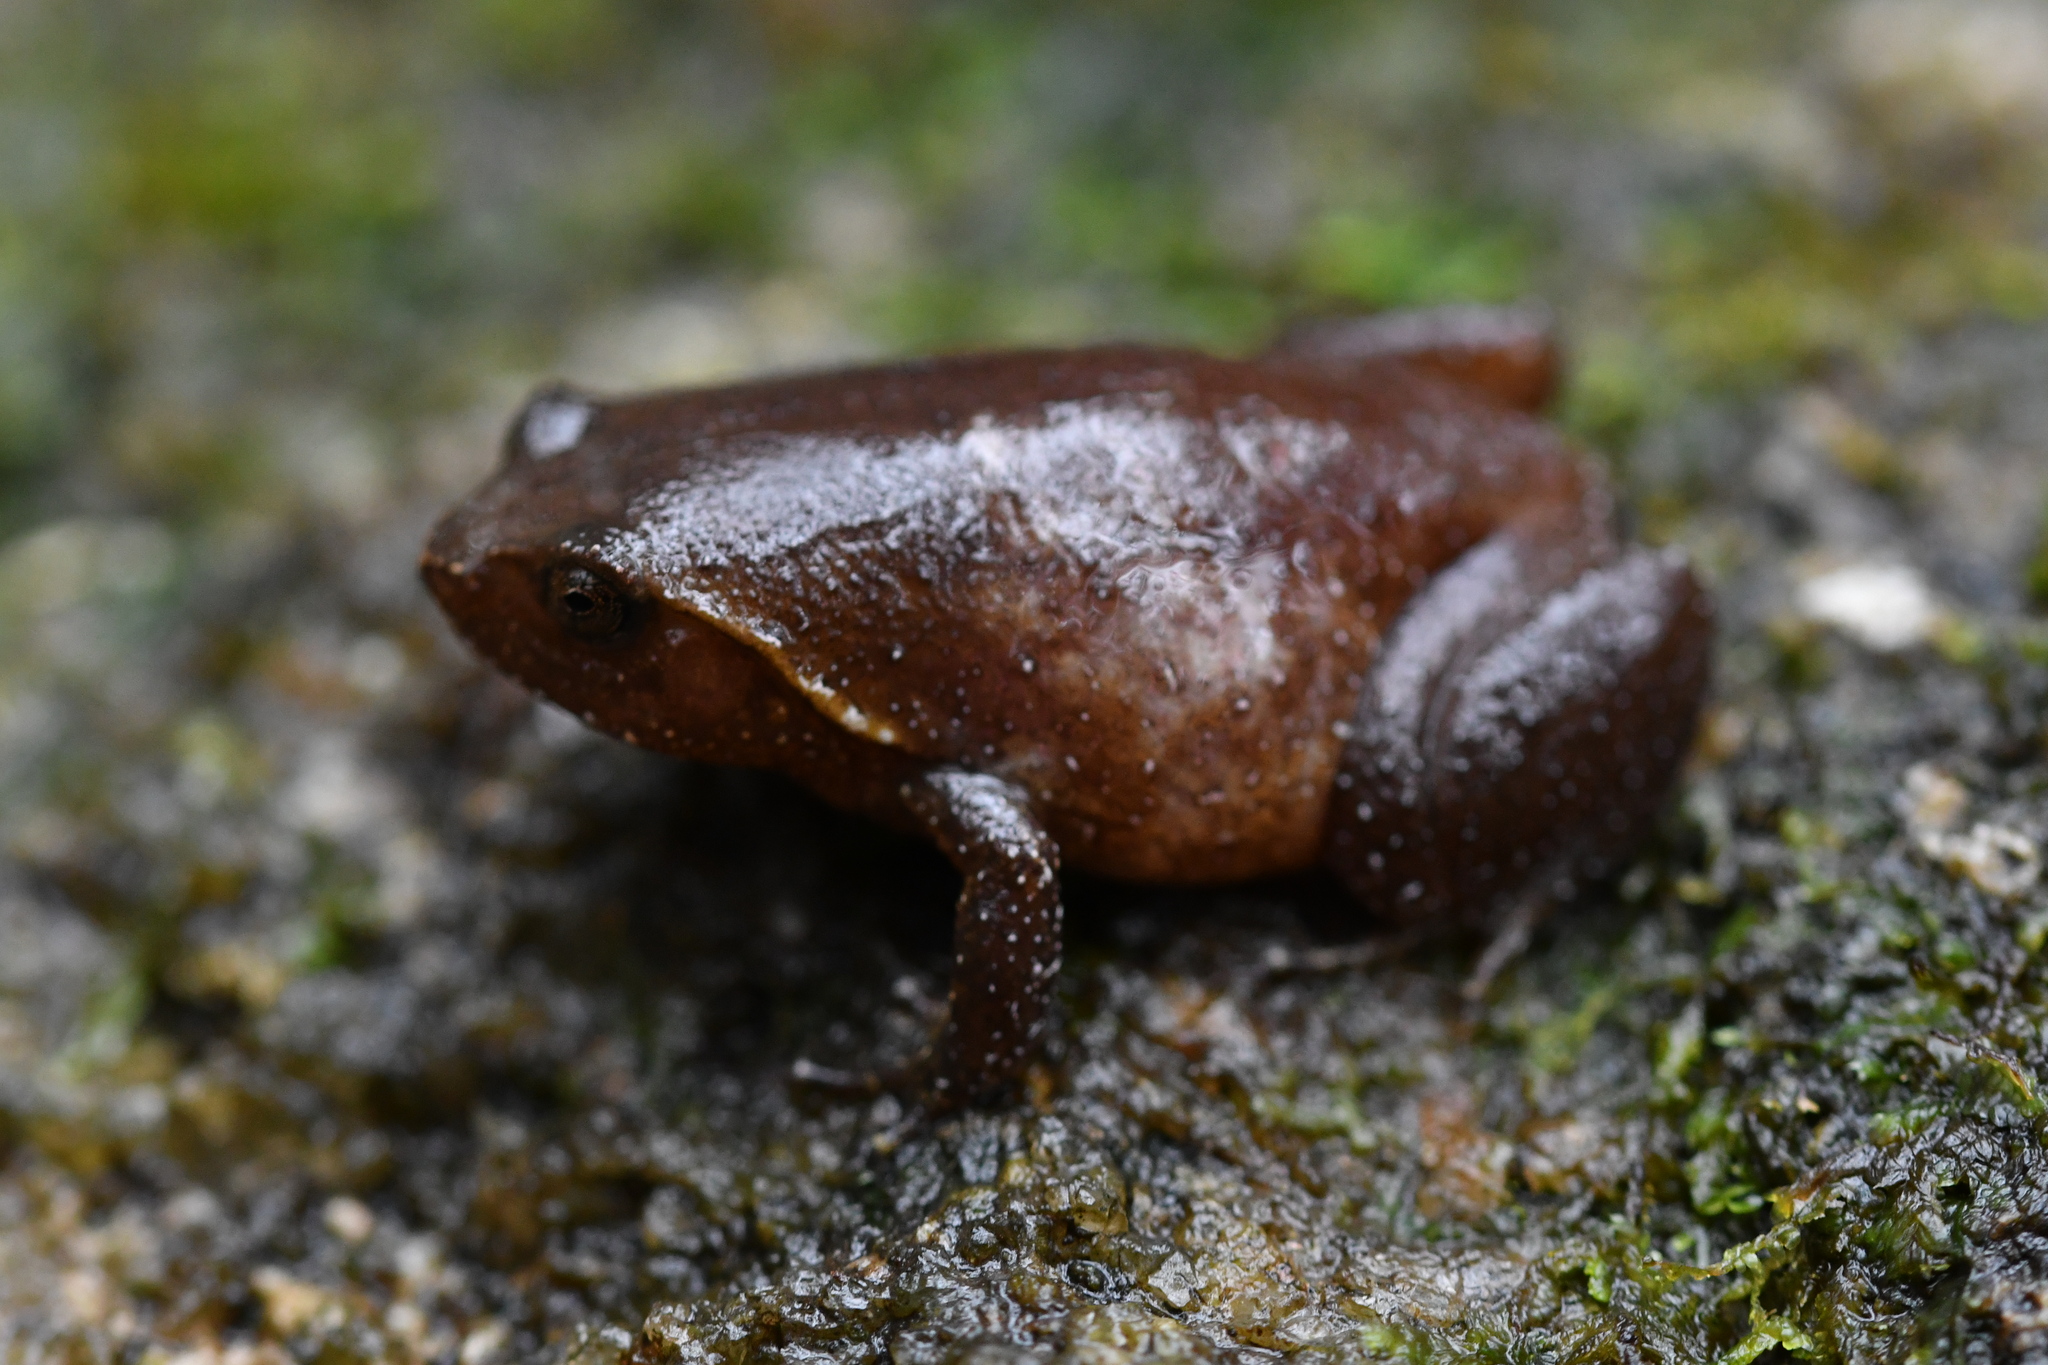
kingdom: Animalia
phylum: Chordata
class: Amphibia
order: Anura
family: Microhylidae
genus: Plethodontohyla
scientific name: Plethodontohyla brevipes
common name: Betsileo digging frog
